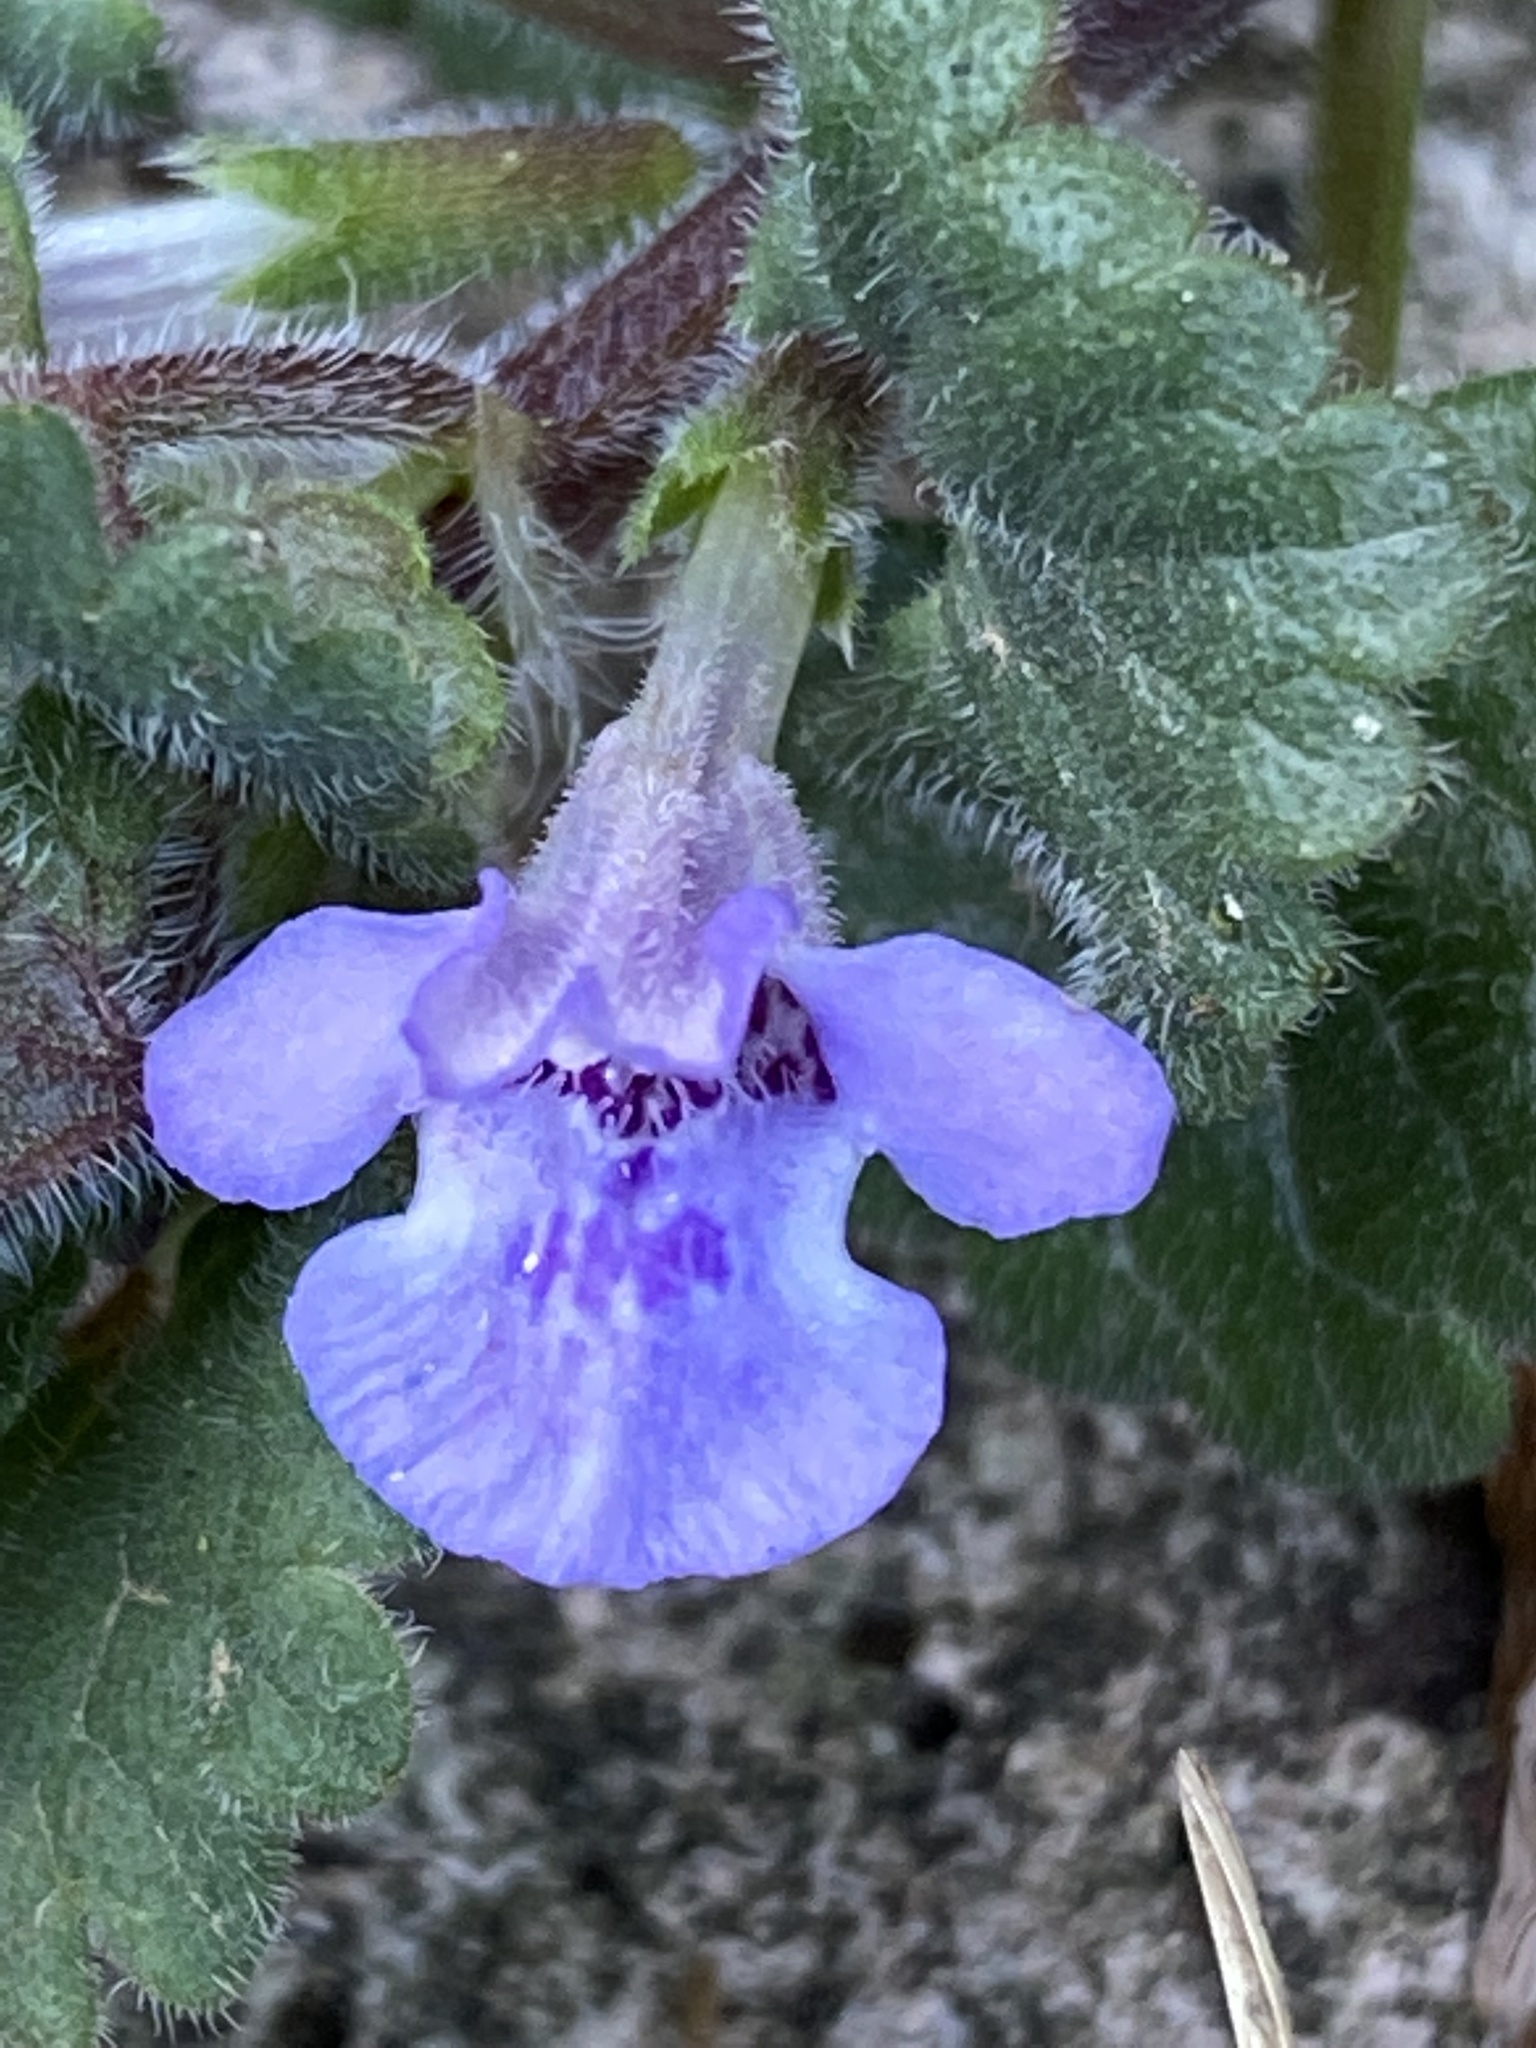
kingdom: Plantae
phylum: Tracheophyta
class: Magnoliopsida
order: Lamiales
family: Lamiaceae
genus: Glechoma
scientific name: Glechoma hederacea
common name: Ground ivy
